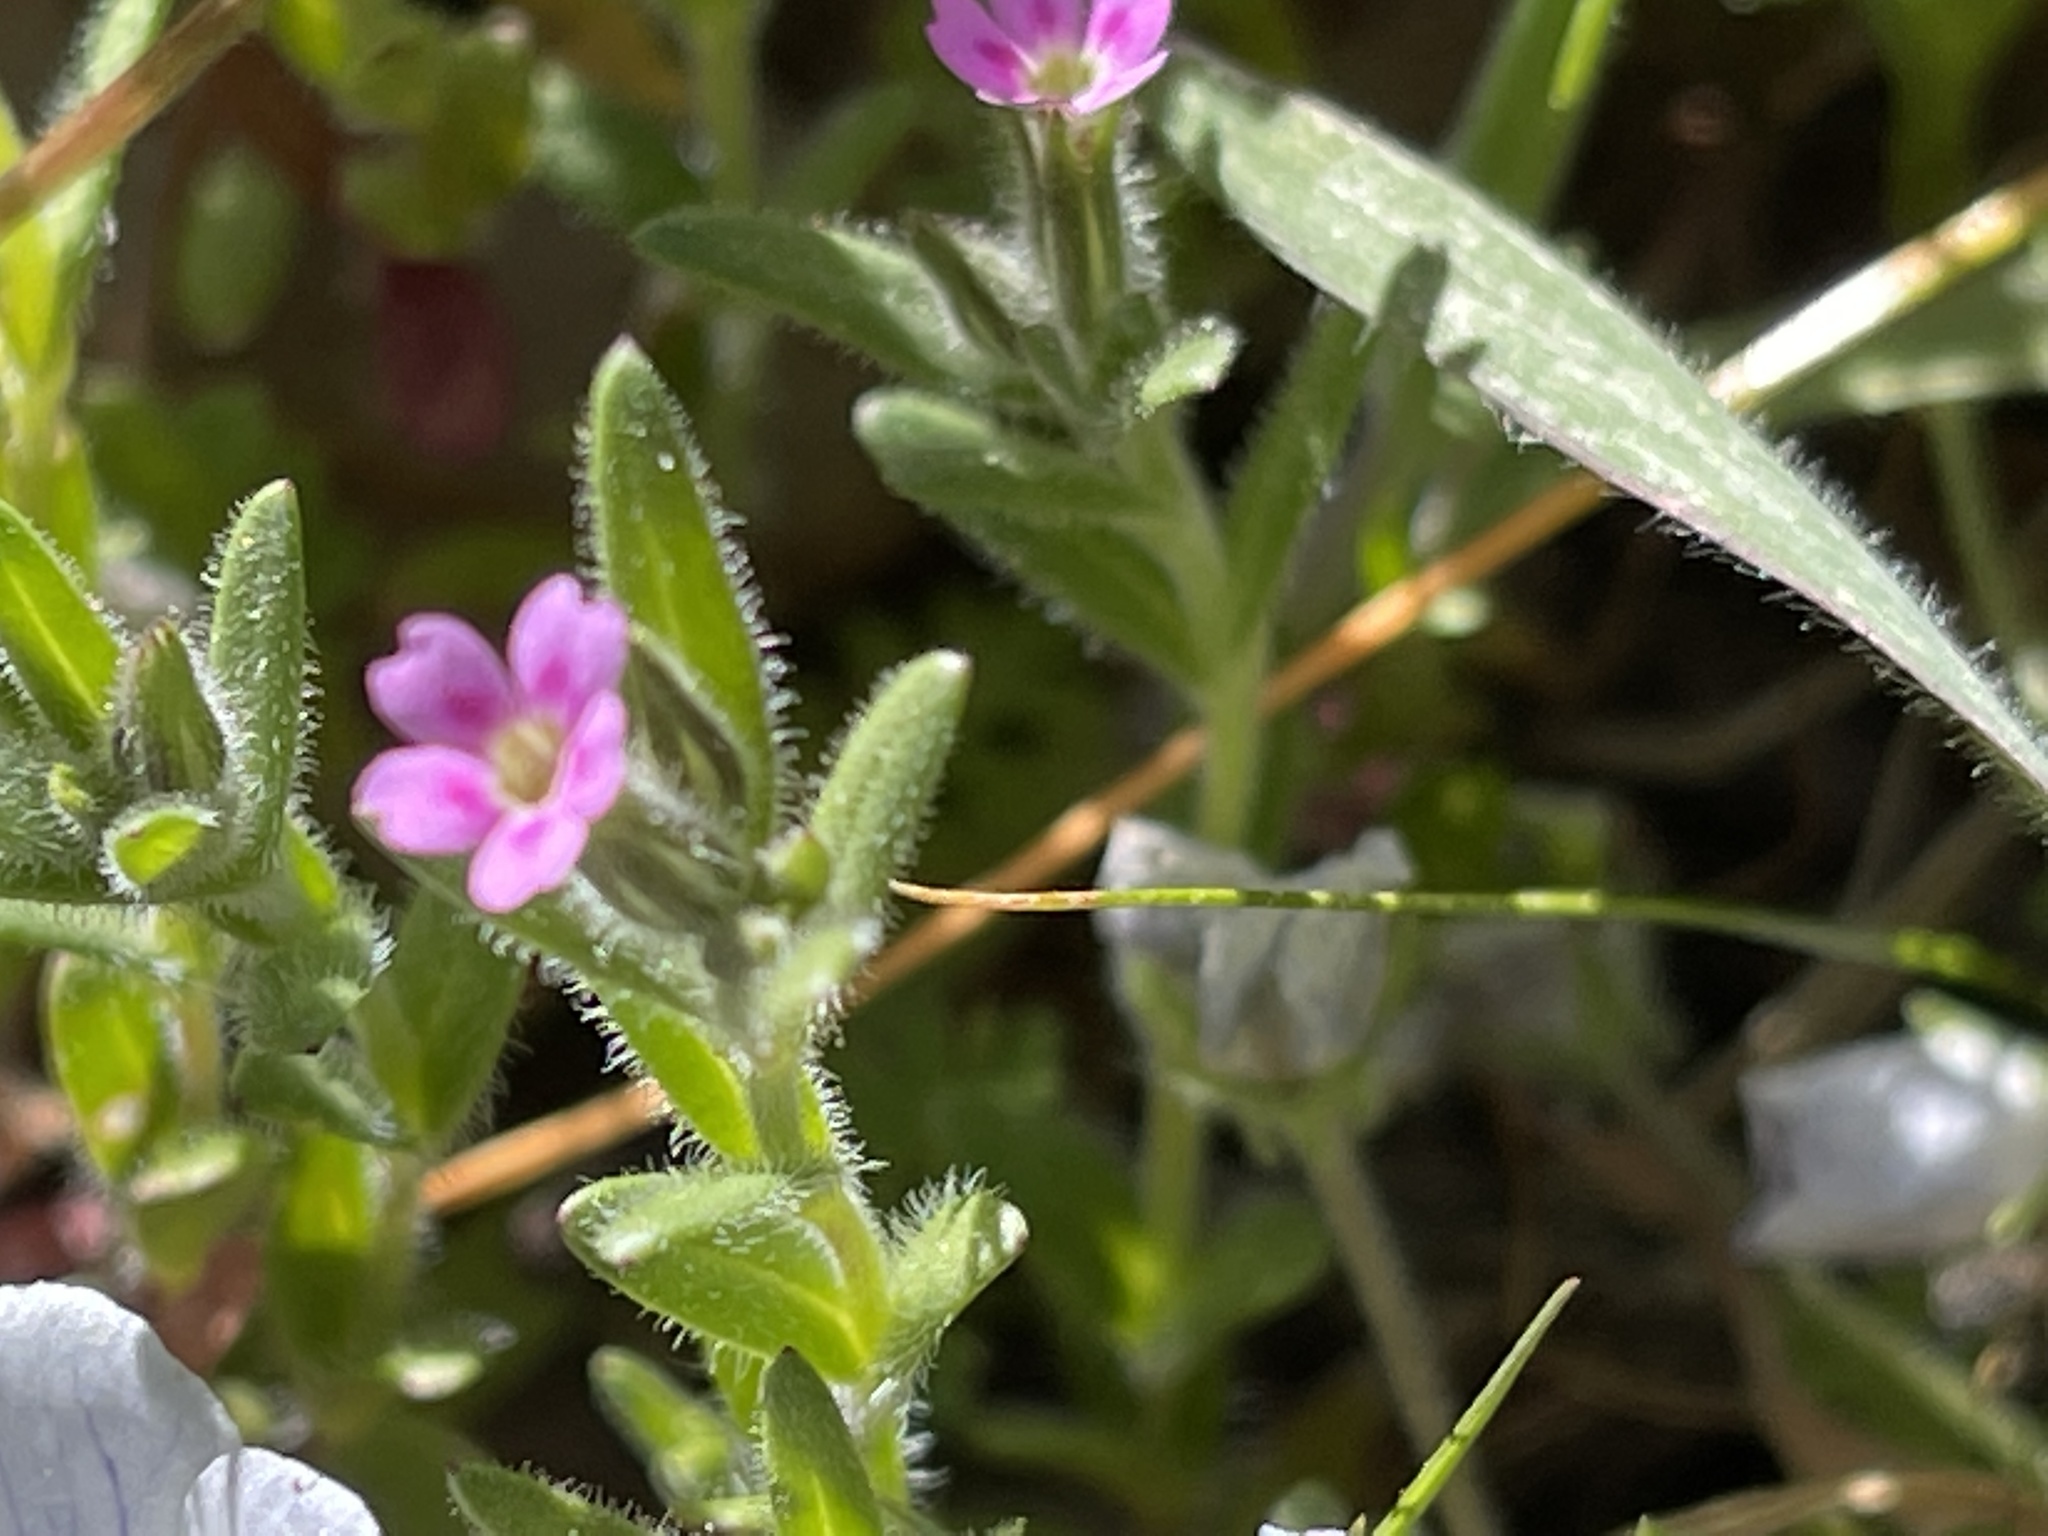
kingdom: Plantae
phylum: Tracheophyta
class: Magnoliopsida
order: Ericales
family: Polemoniaceae
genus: Phlox
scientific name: Phlox gracilis
